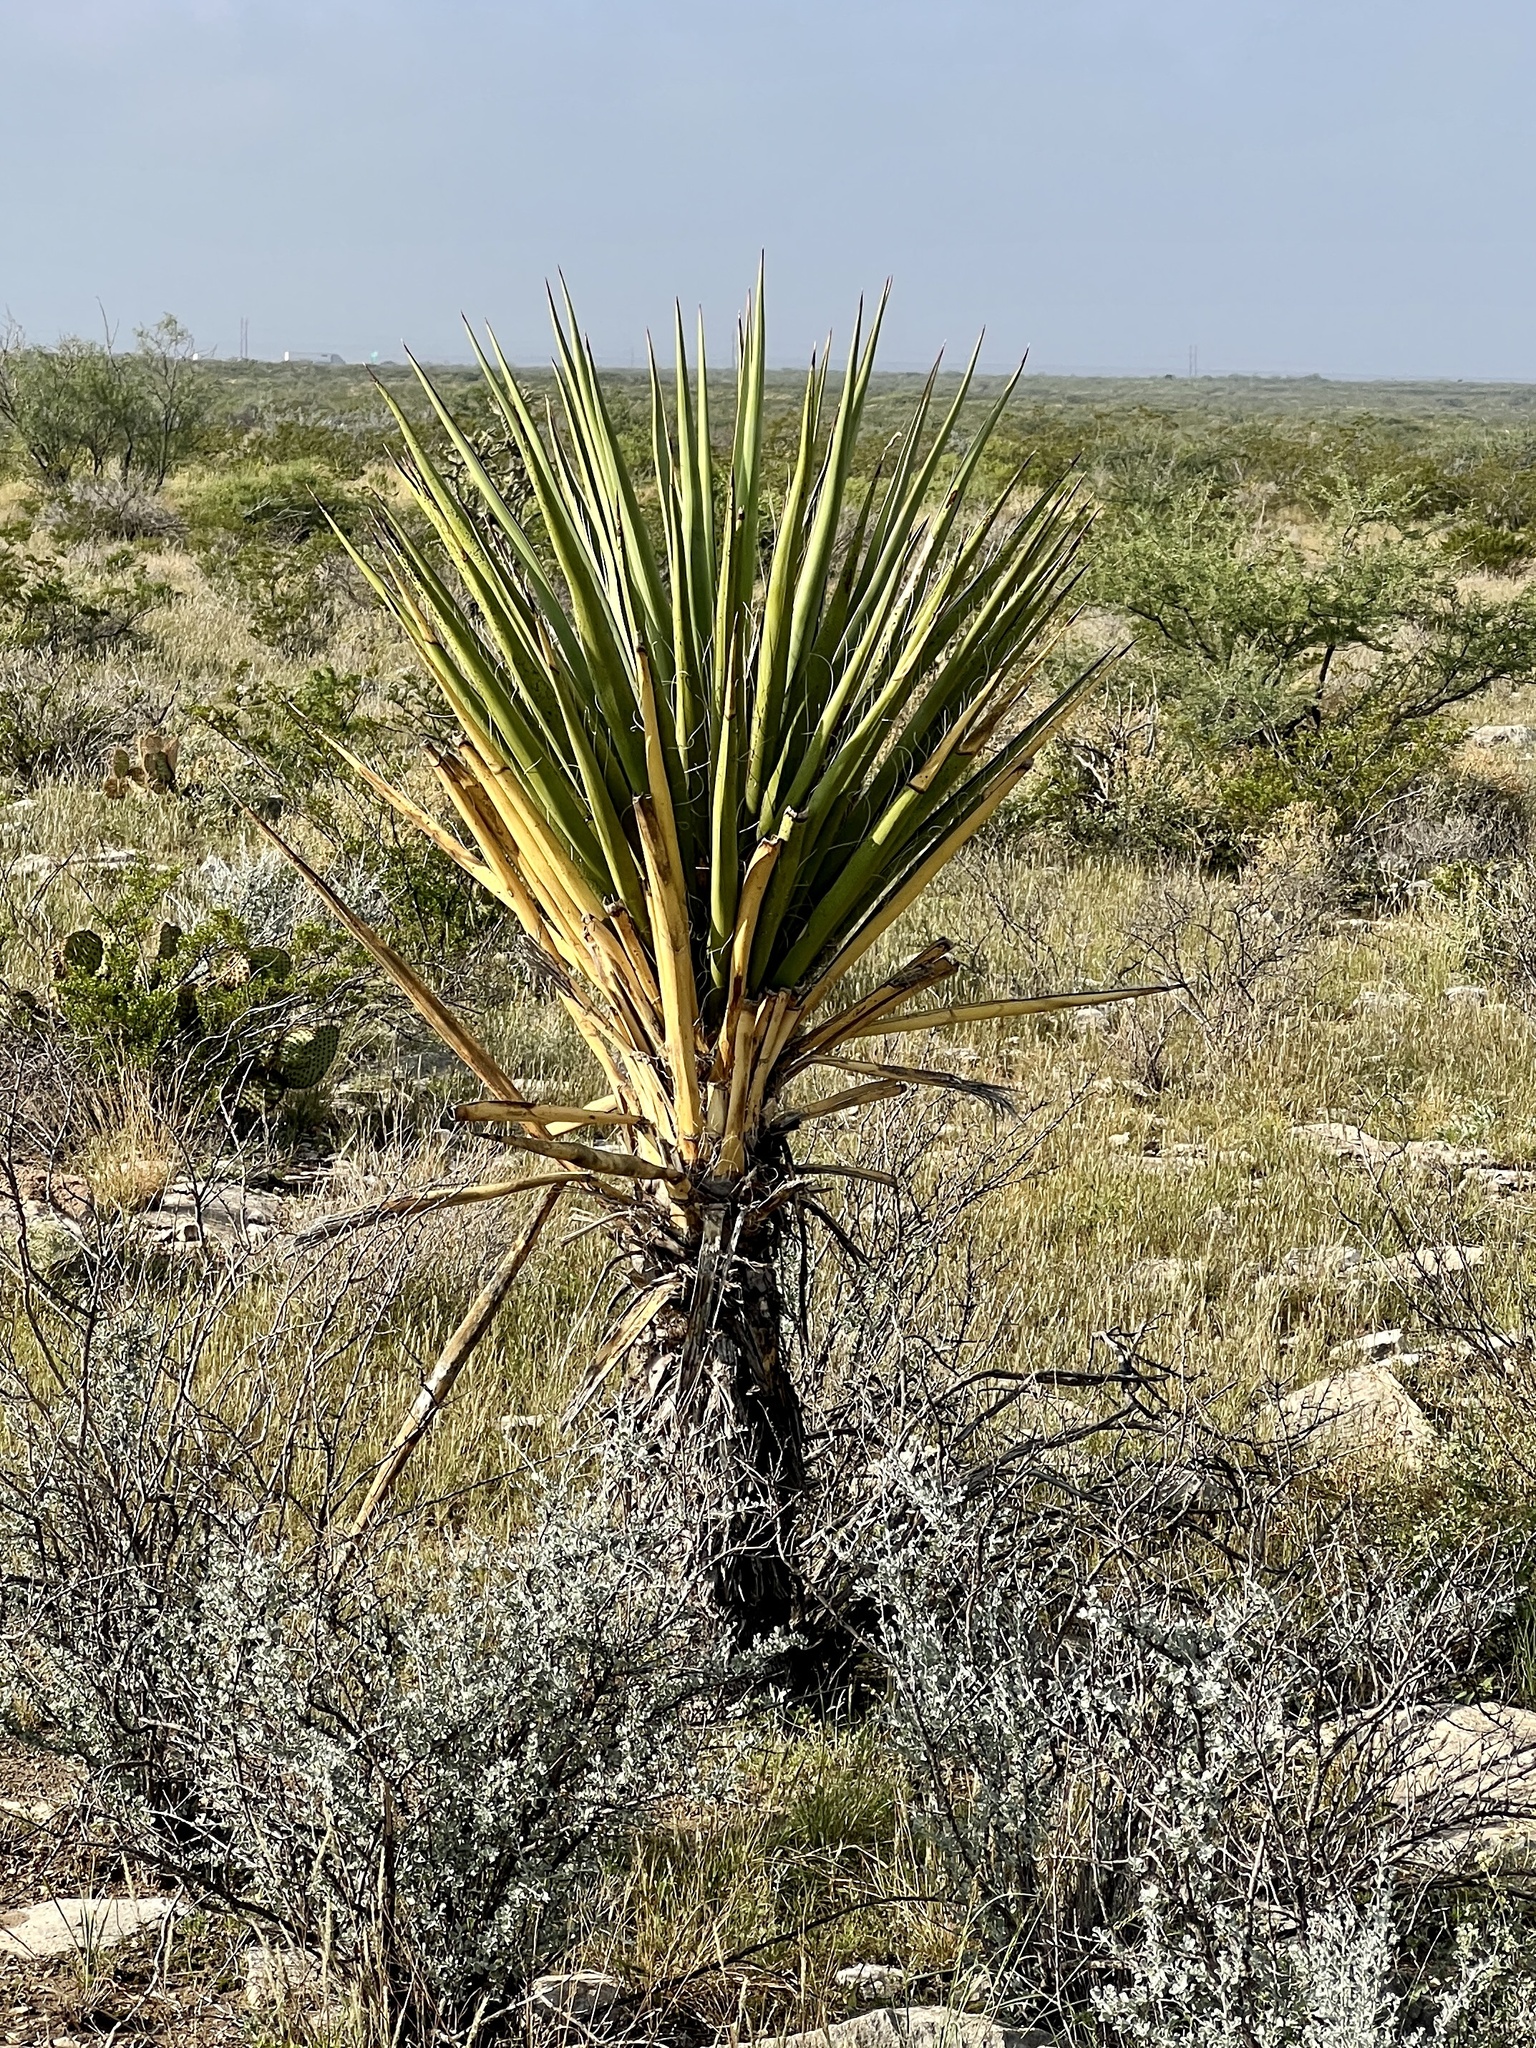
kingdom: Plantae
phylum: Tracheophyta
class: Liliopsida
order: Asparagales
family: Asparagaceae
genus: Yucca
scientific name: Yucca treculiana
